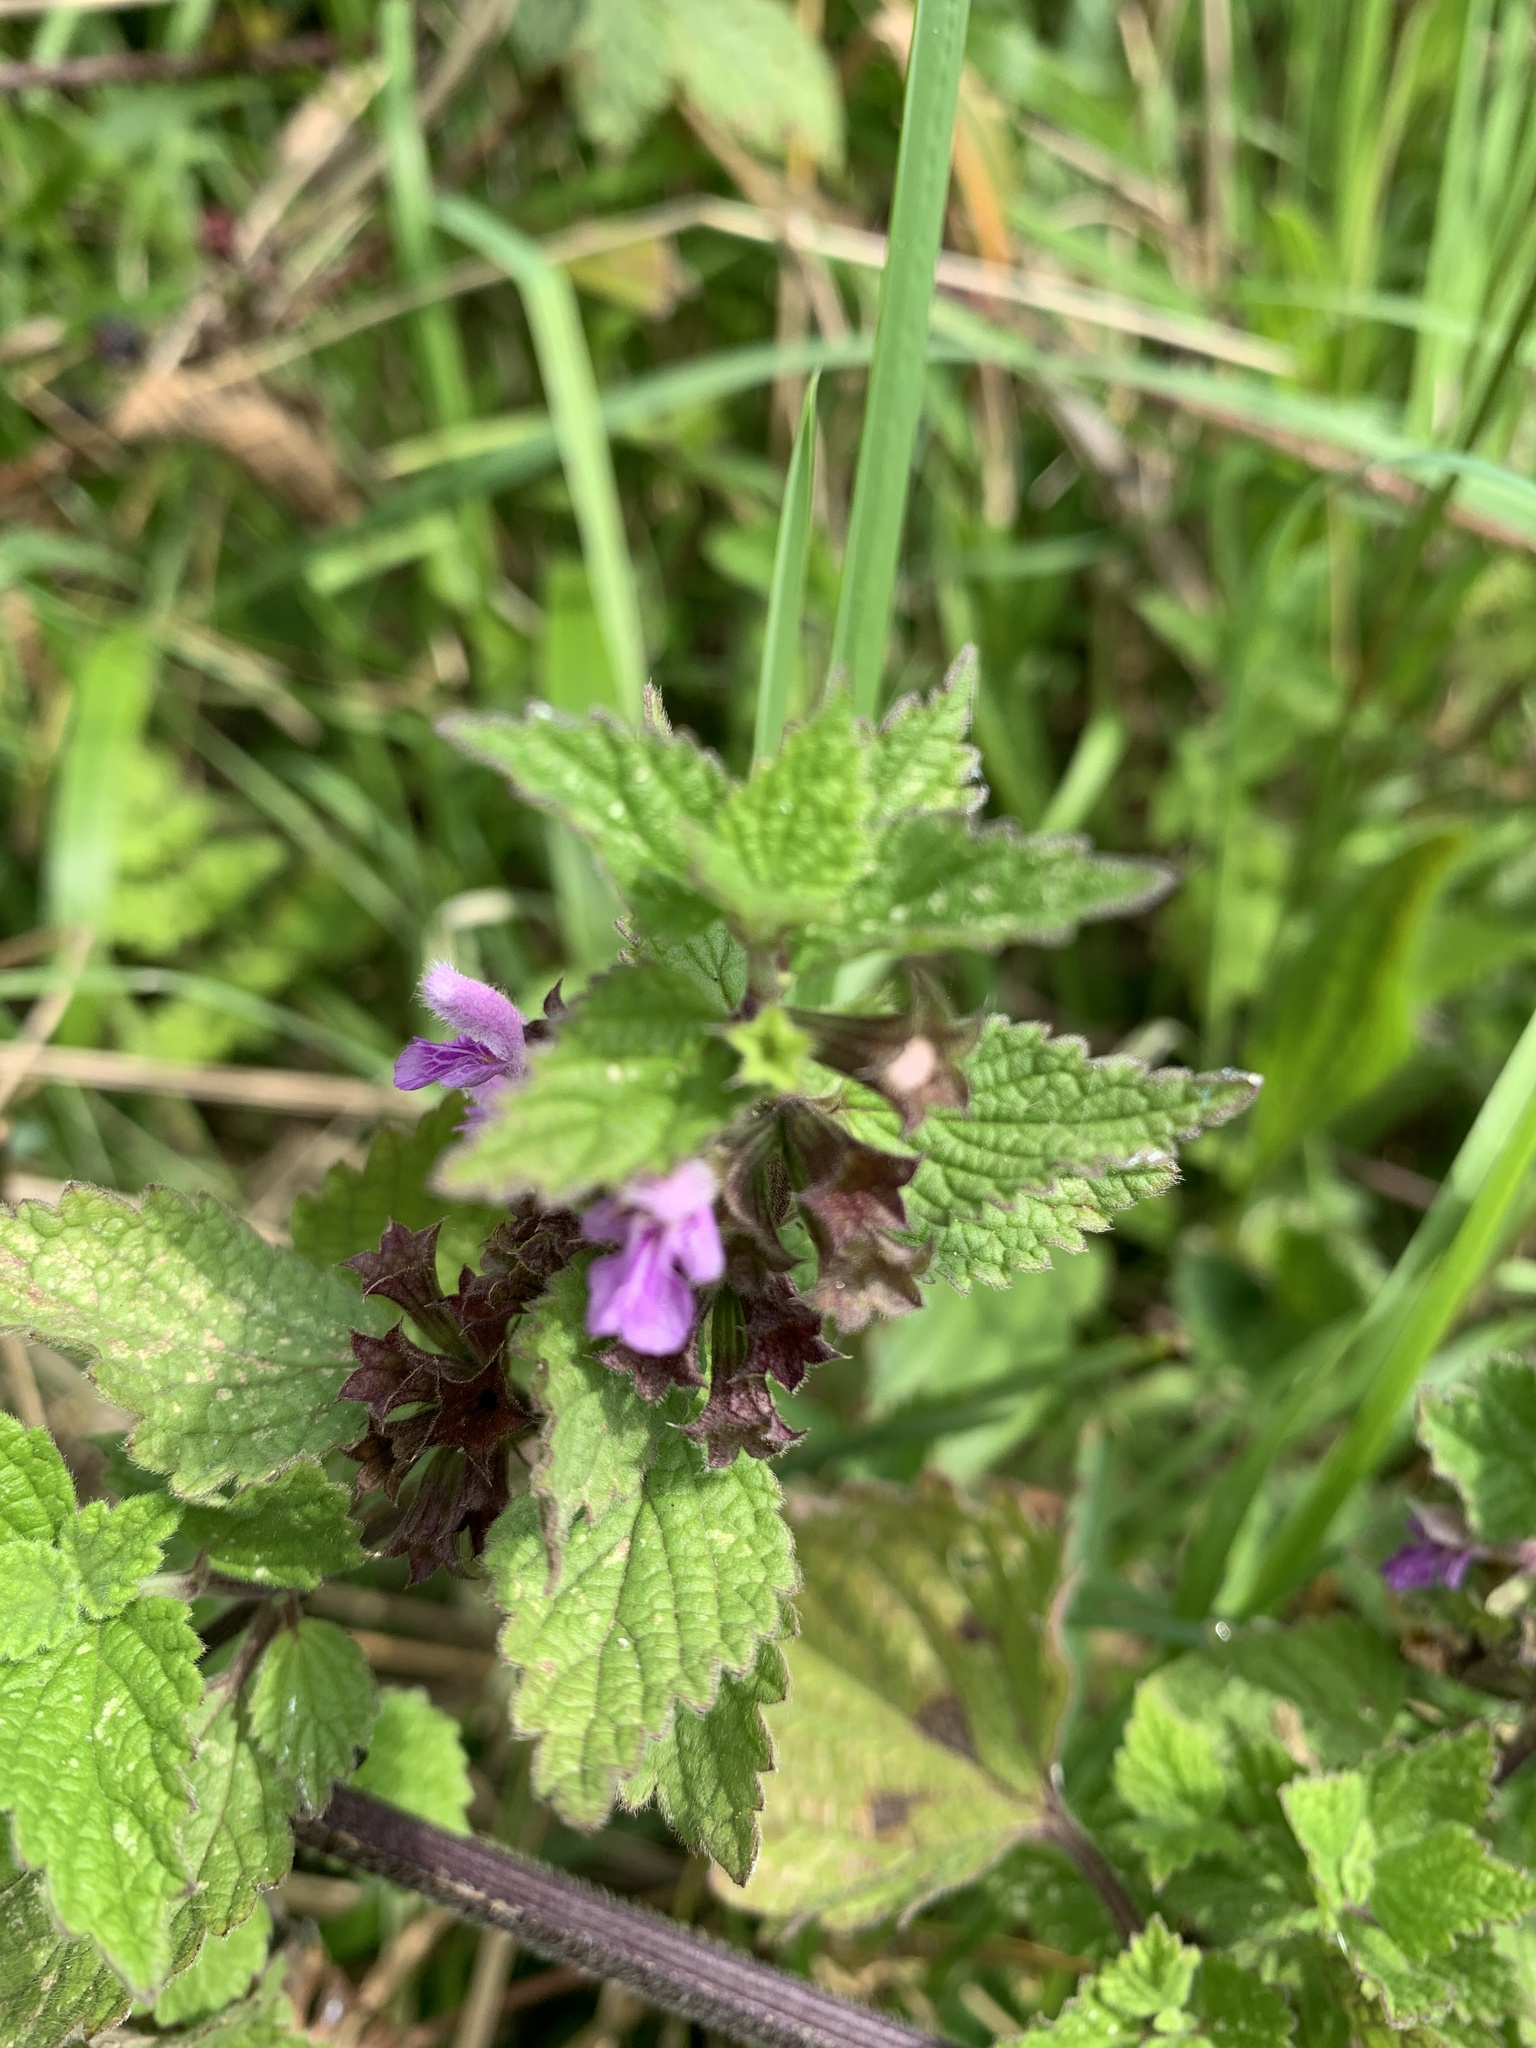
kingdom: Plantae
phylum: Tracheophyta
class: Magnoliopsida
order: Lamiales
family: Lamiaceae
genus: Ballota
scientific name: Ballota nigra
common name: Black horehound
